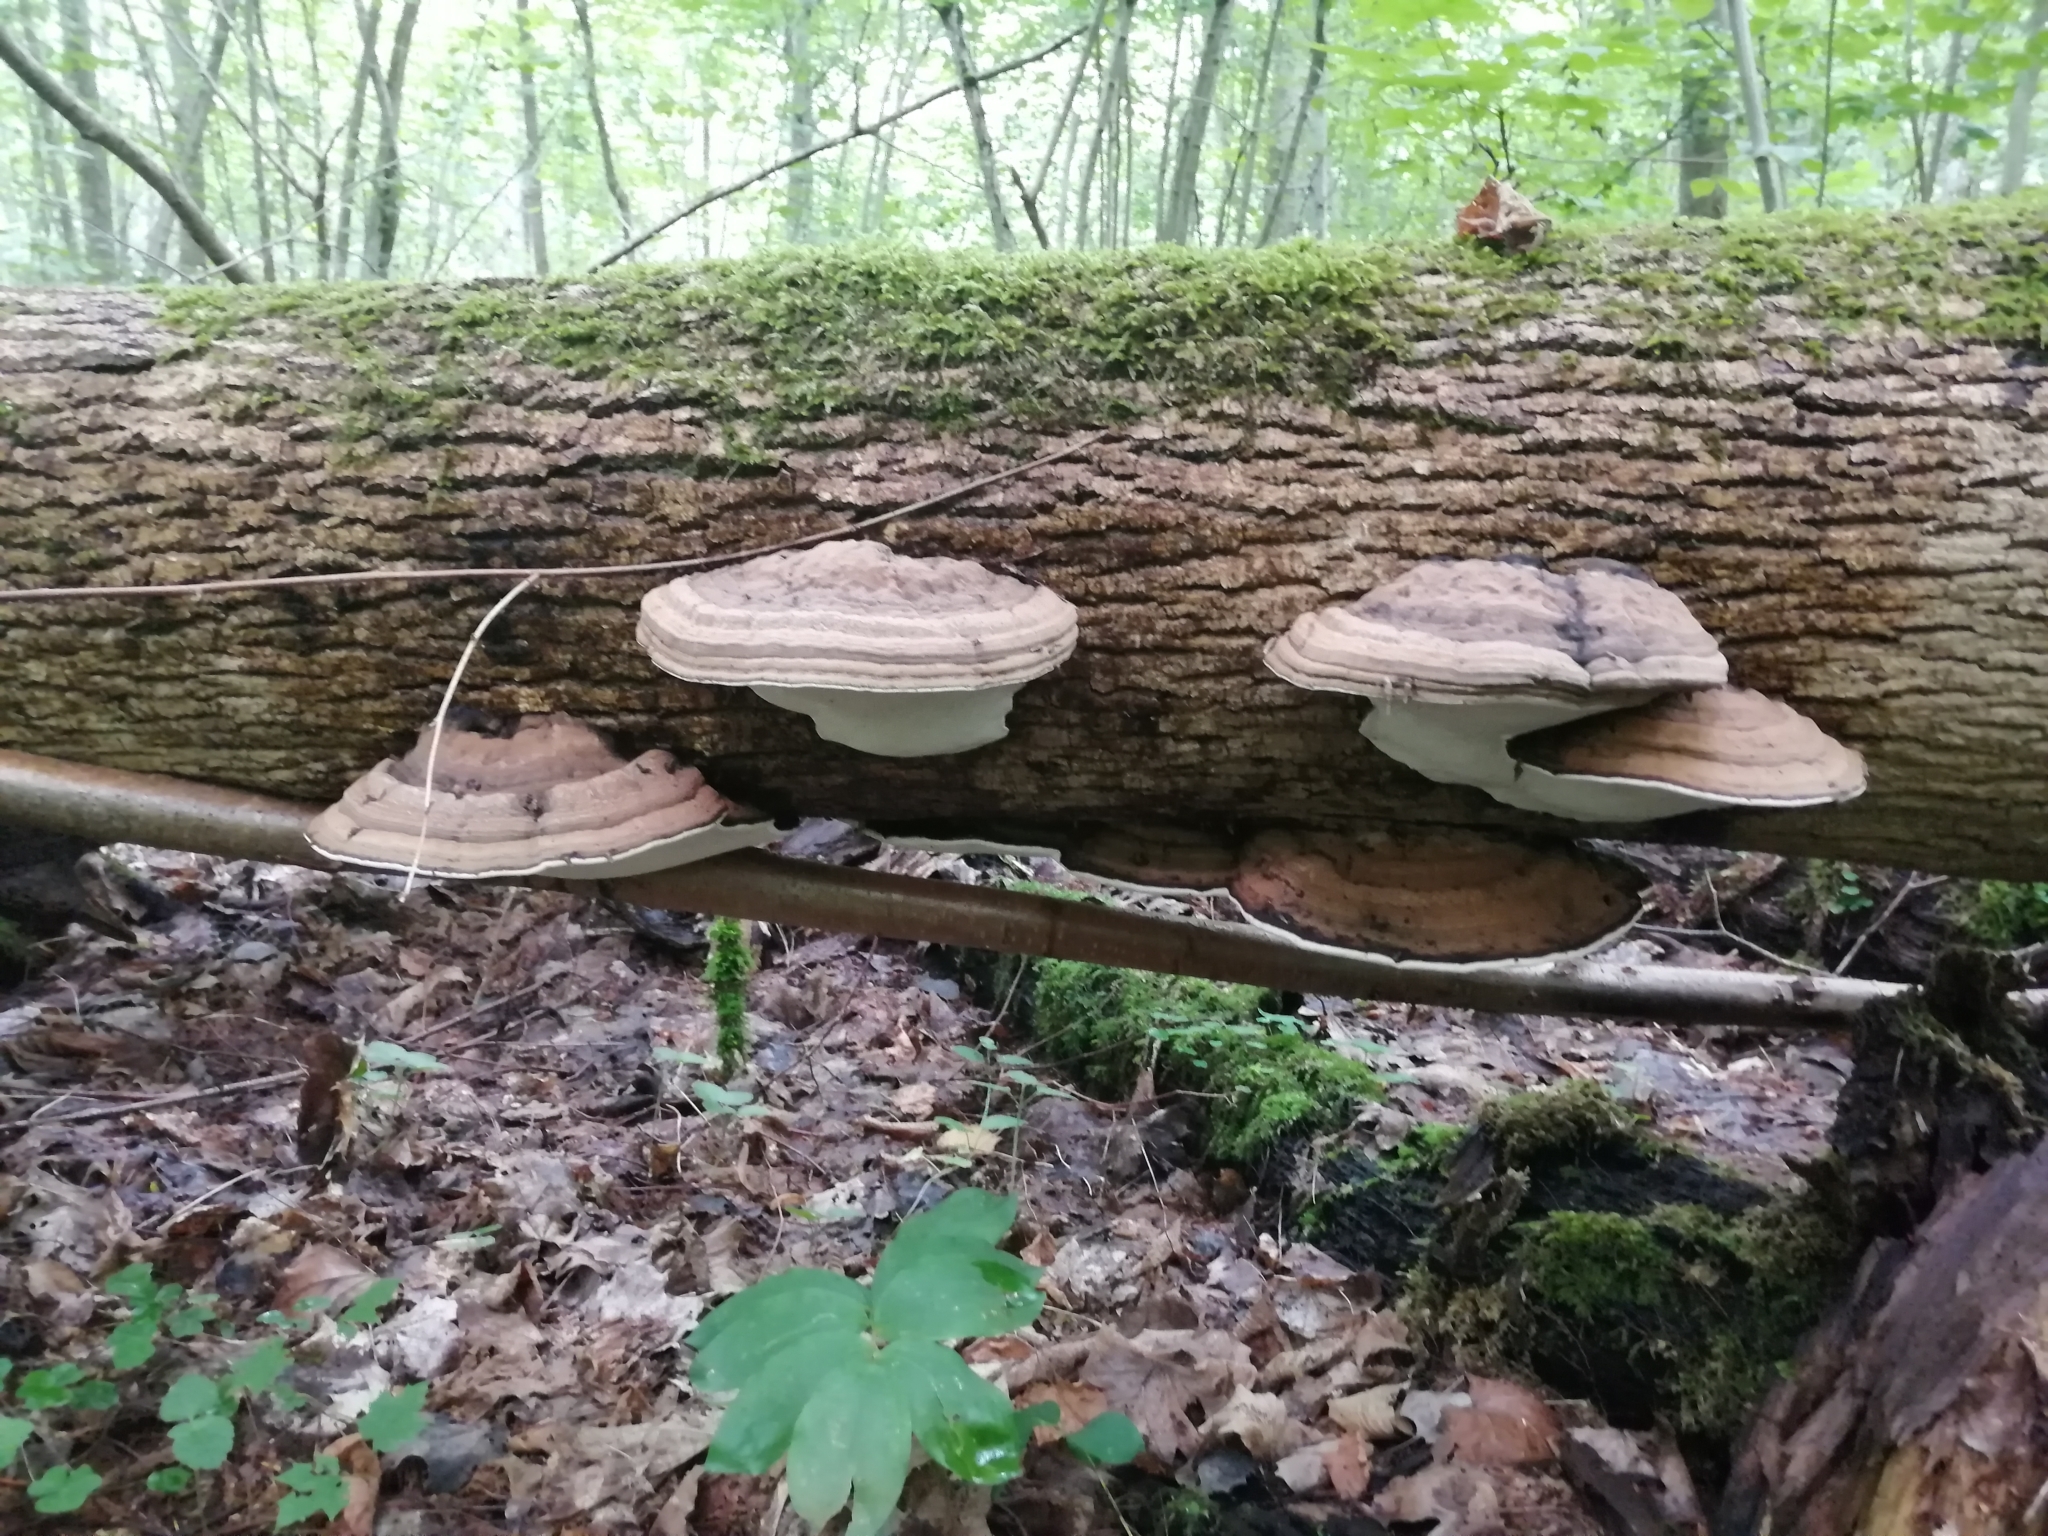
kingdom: Fungi
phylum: Basidiomycota
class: Agaricomycetes
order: Polyporales
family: Polyporaceae
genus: Ganoderma
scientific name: Ganoderma applanatum
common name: Artist's bracket
